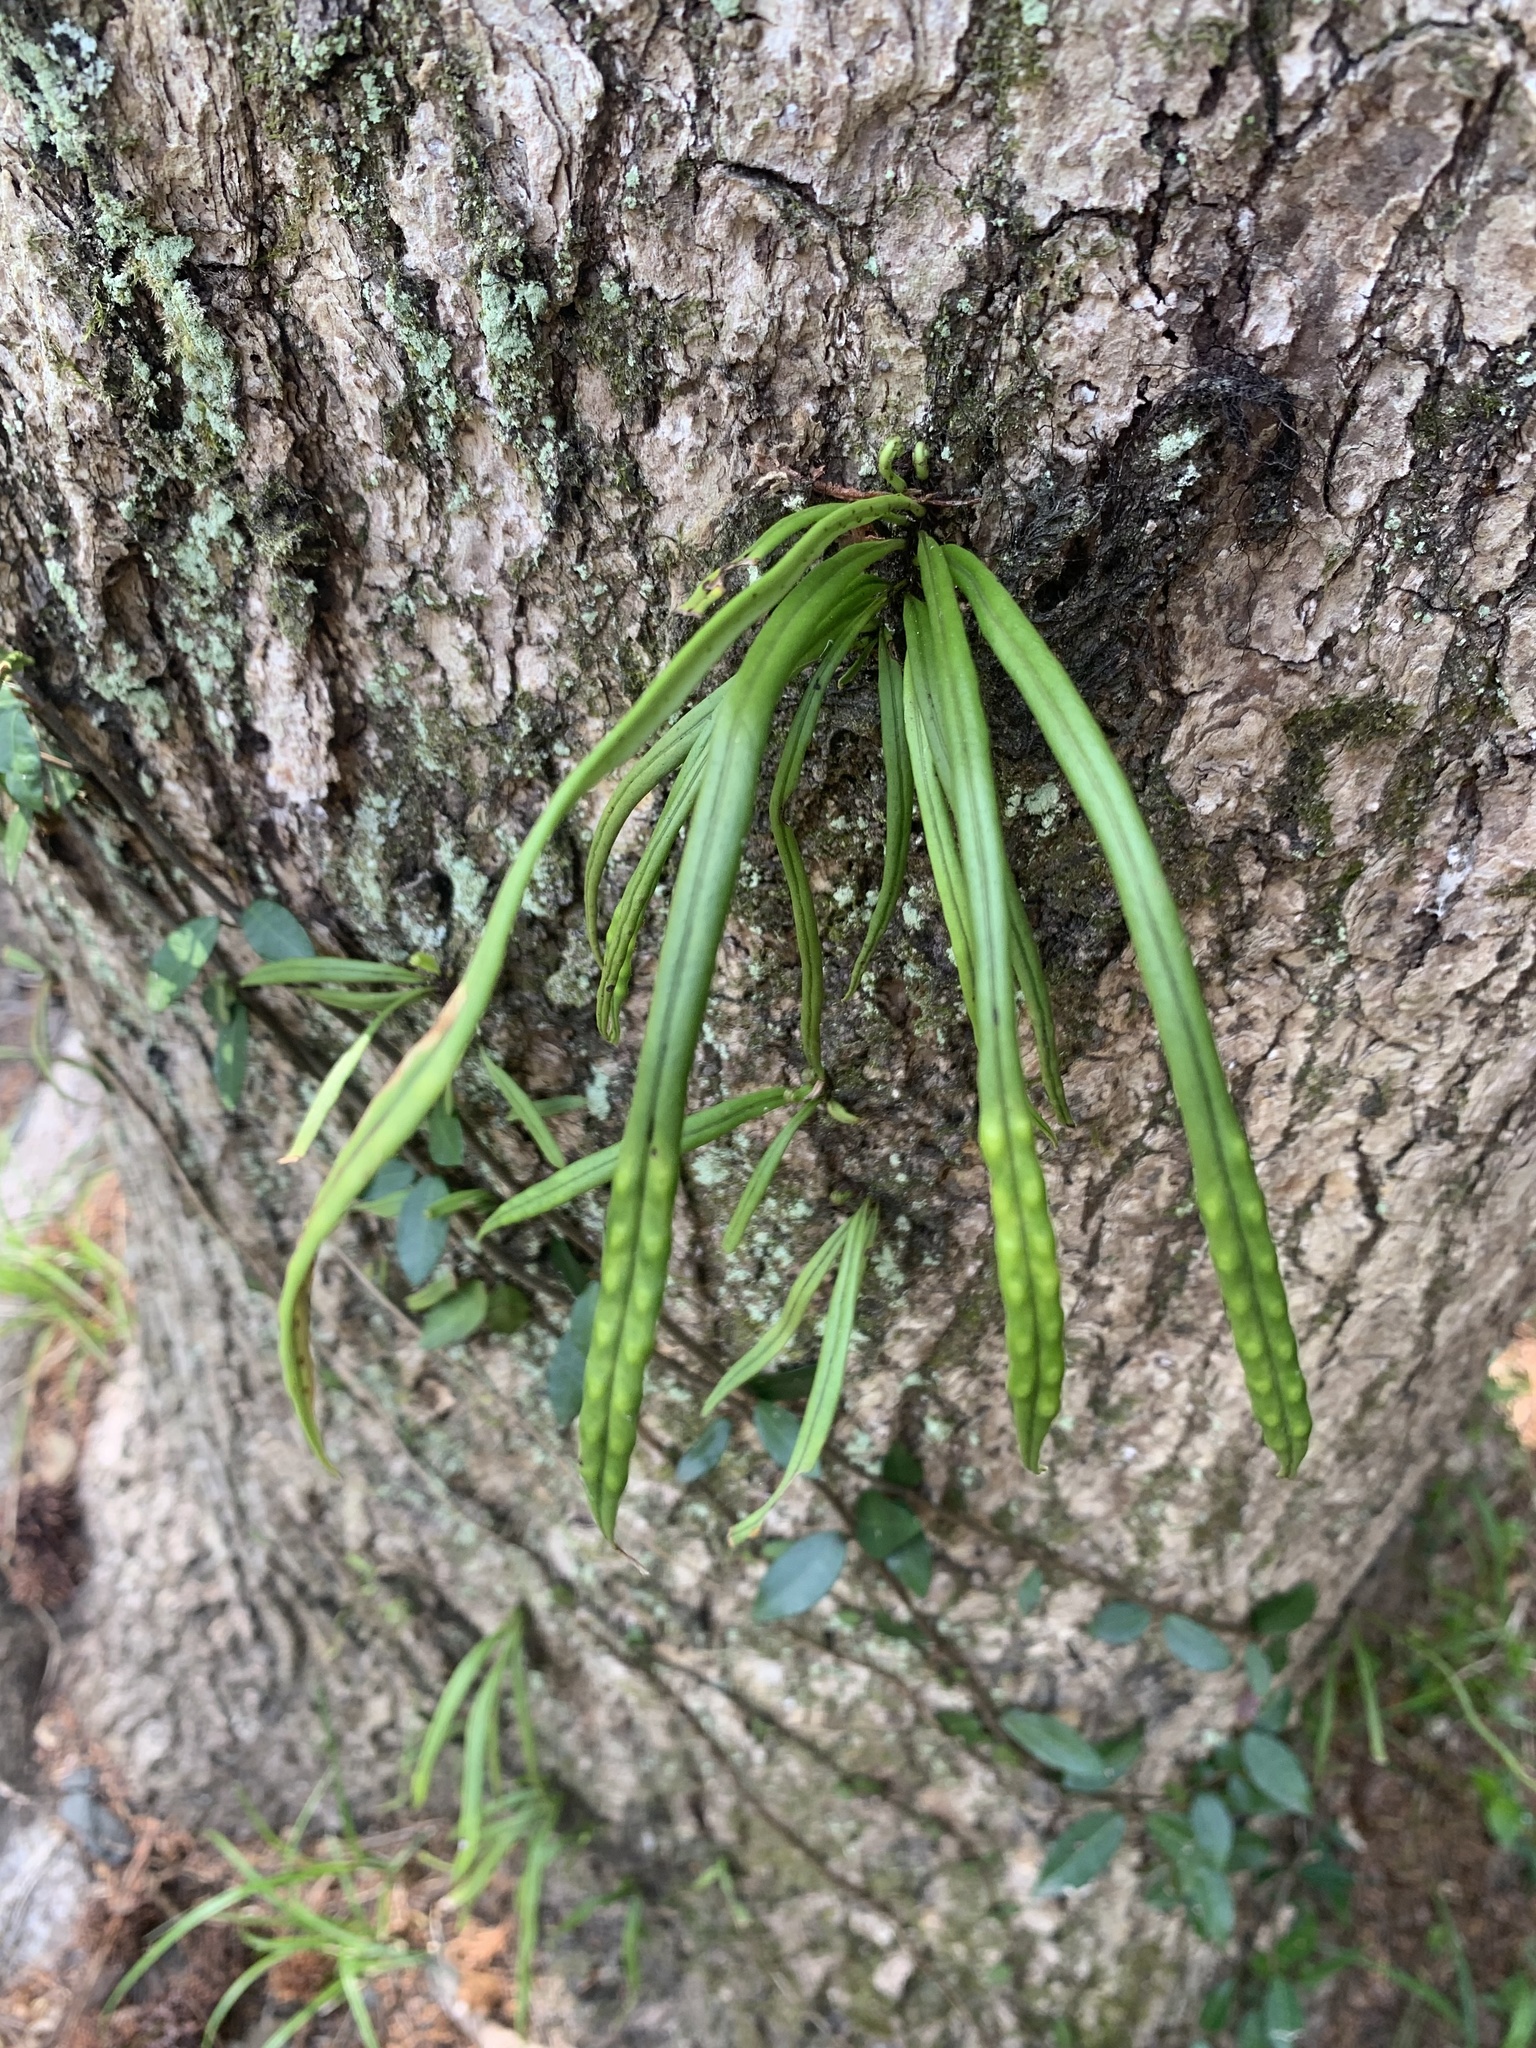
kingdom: Plantae
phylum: Tracheophyta
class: Polypodiopsida
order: Polypodiales
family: Polypodiaceae
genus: Lepisorus
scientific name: Lepisorus thunbergianus
